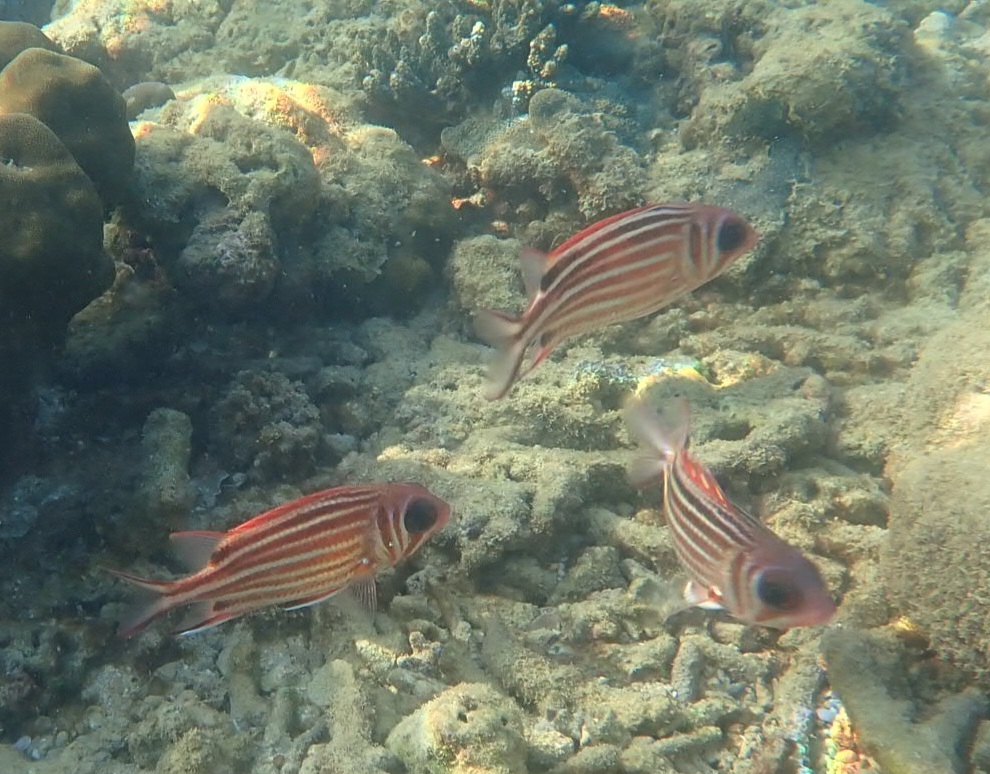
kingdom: Animalia
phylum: Chordata
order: Beryciformes
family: Holocentridae
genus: Sargocentron
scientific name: Sargocentron rubrum
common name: Redcoat
